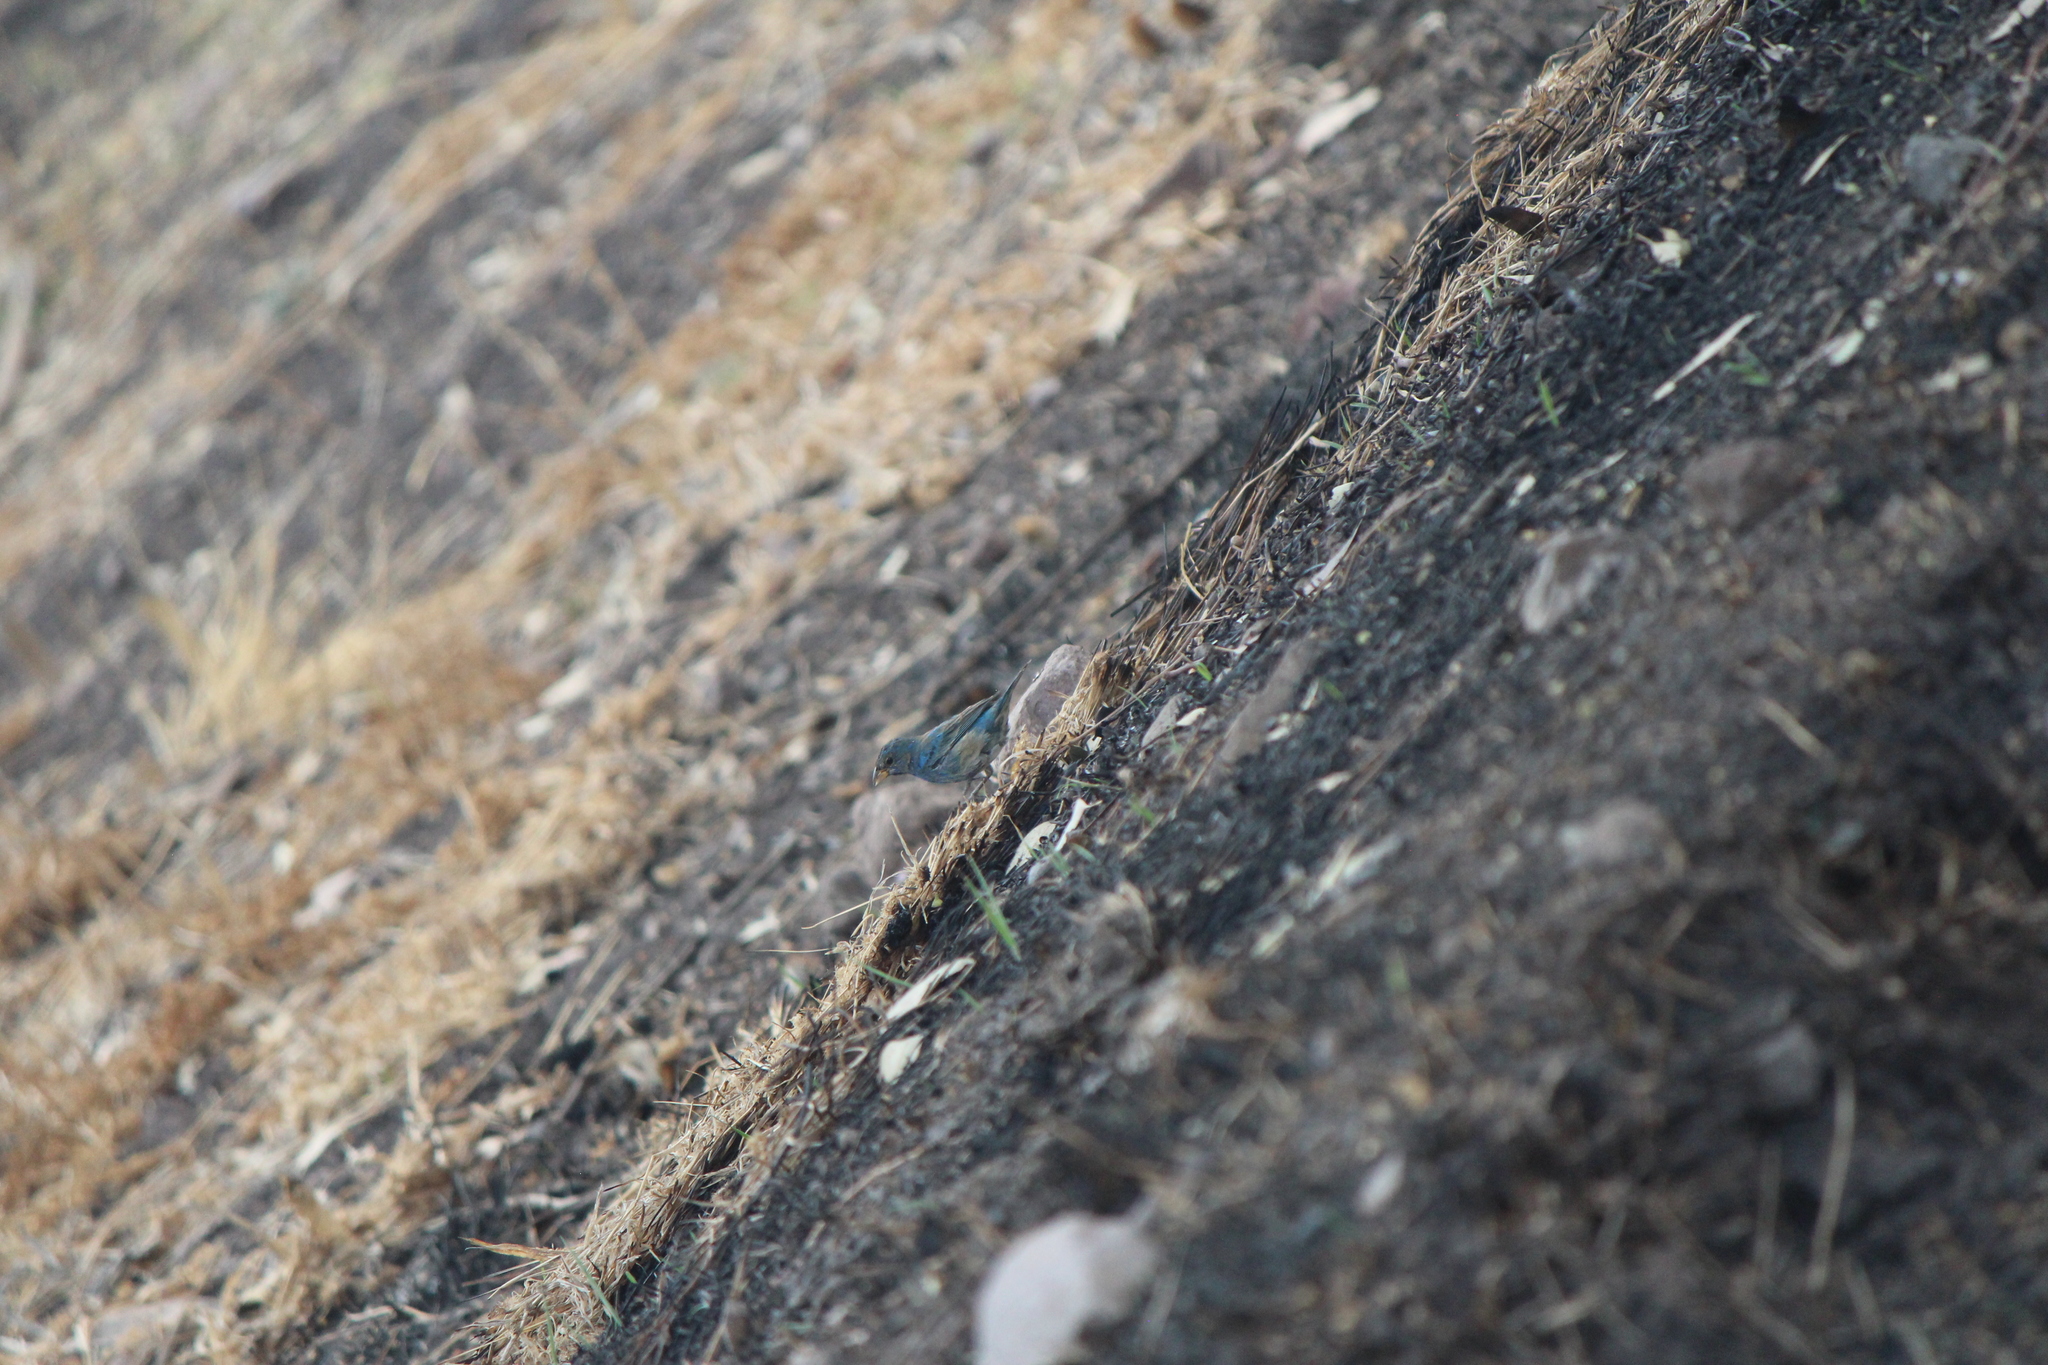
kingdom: Animalia
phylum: Chordata
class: Aves
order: Passeriformes
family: Cardinalidae
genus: Passerina
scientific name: Passerina cyanea
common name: Indigo bunting
